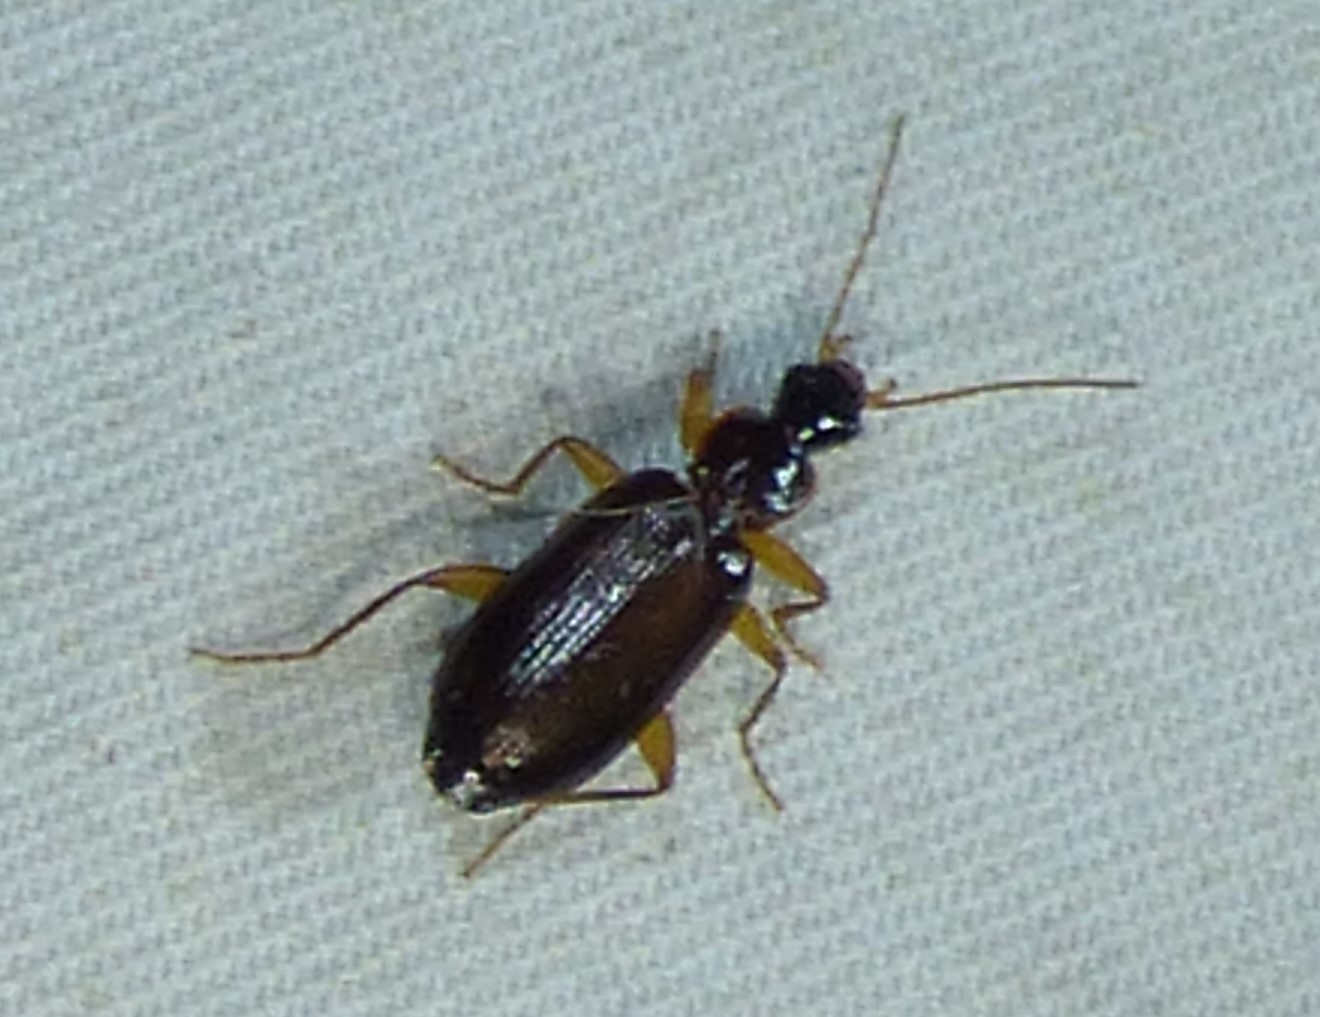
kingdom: Animalia
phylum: Arthropoda
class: Insecta
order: Coleoptera
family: Carabidae
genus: Dromius
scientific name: Dromius piceus
